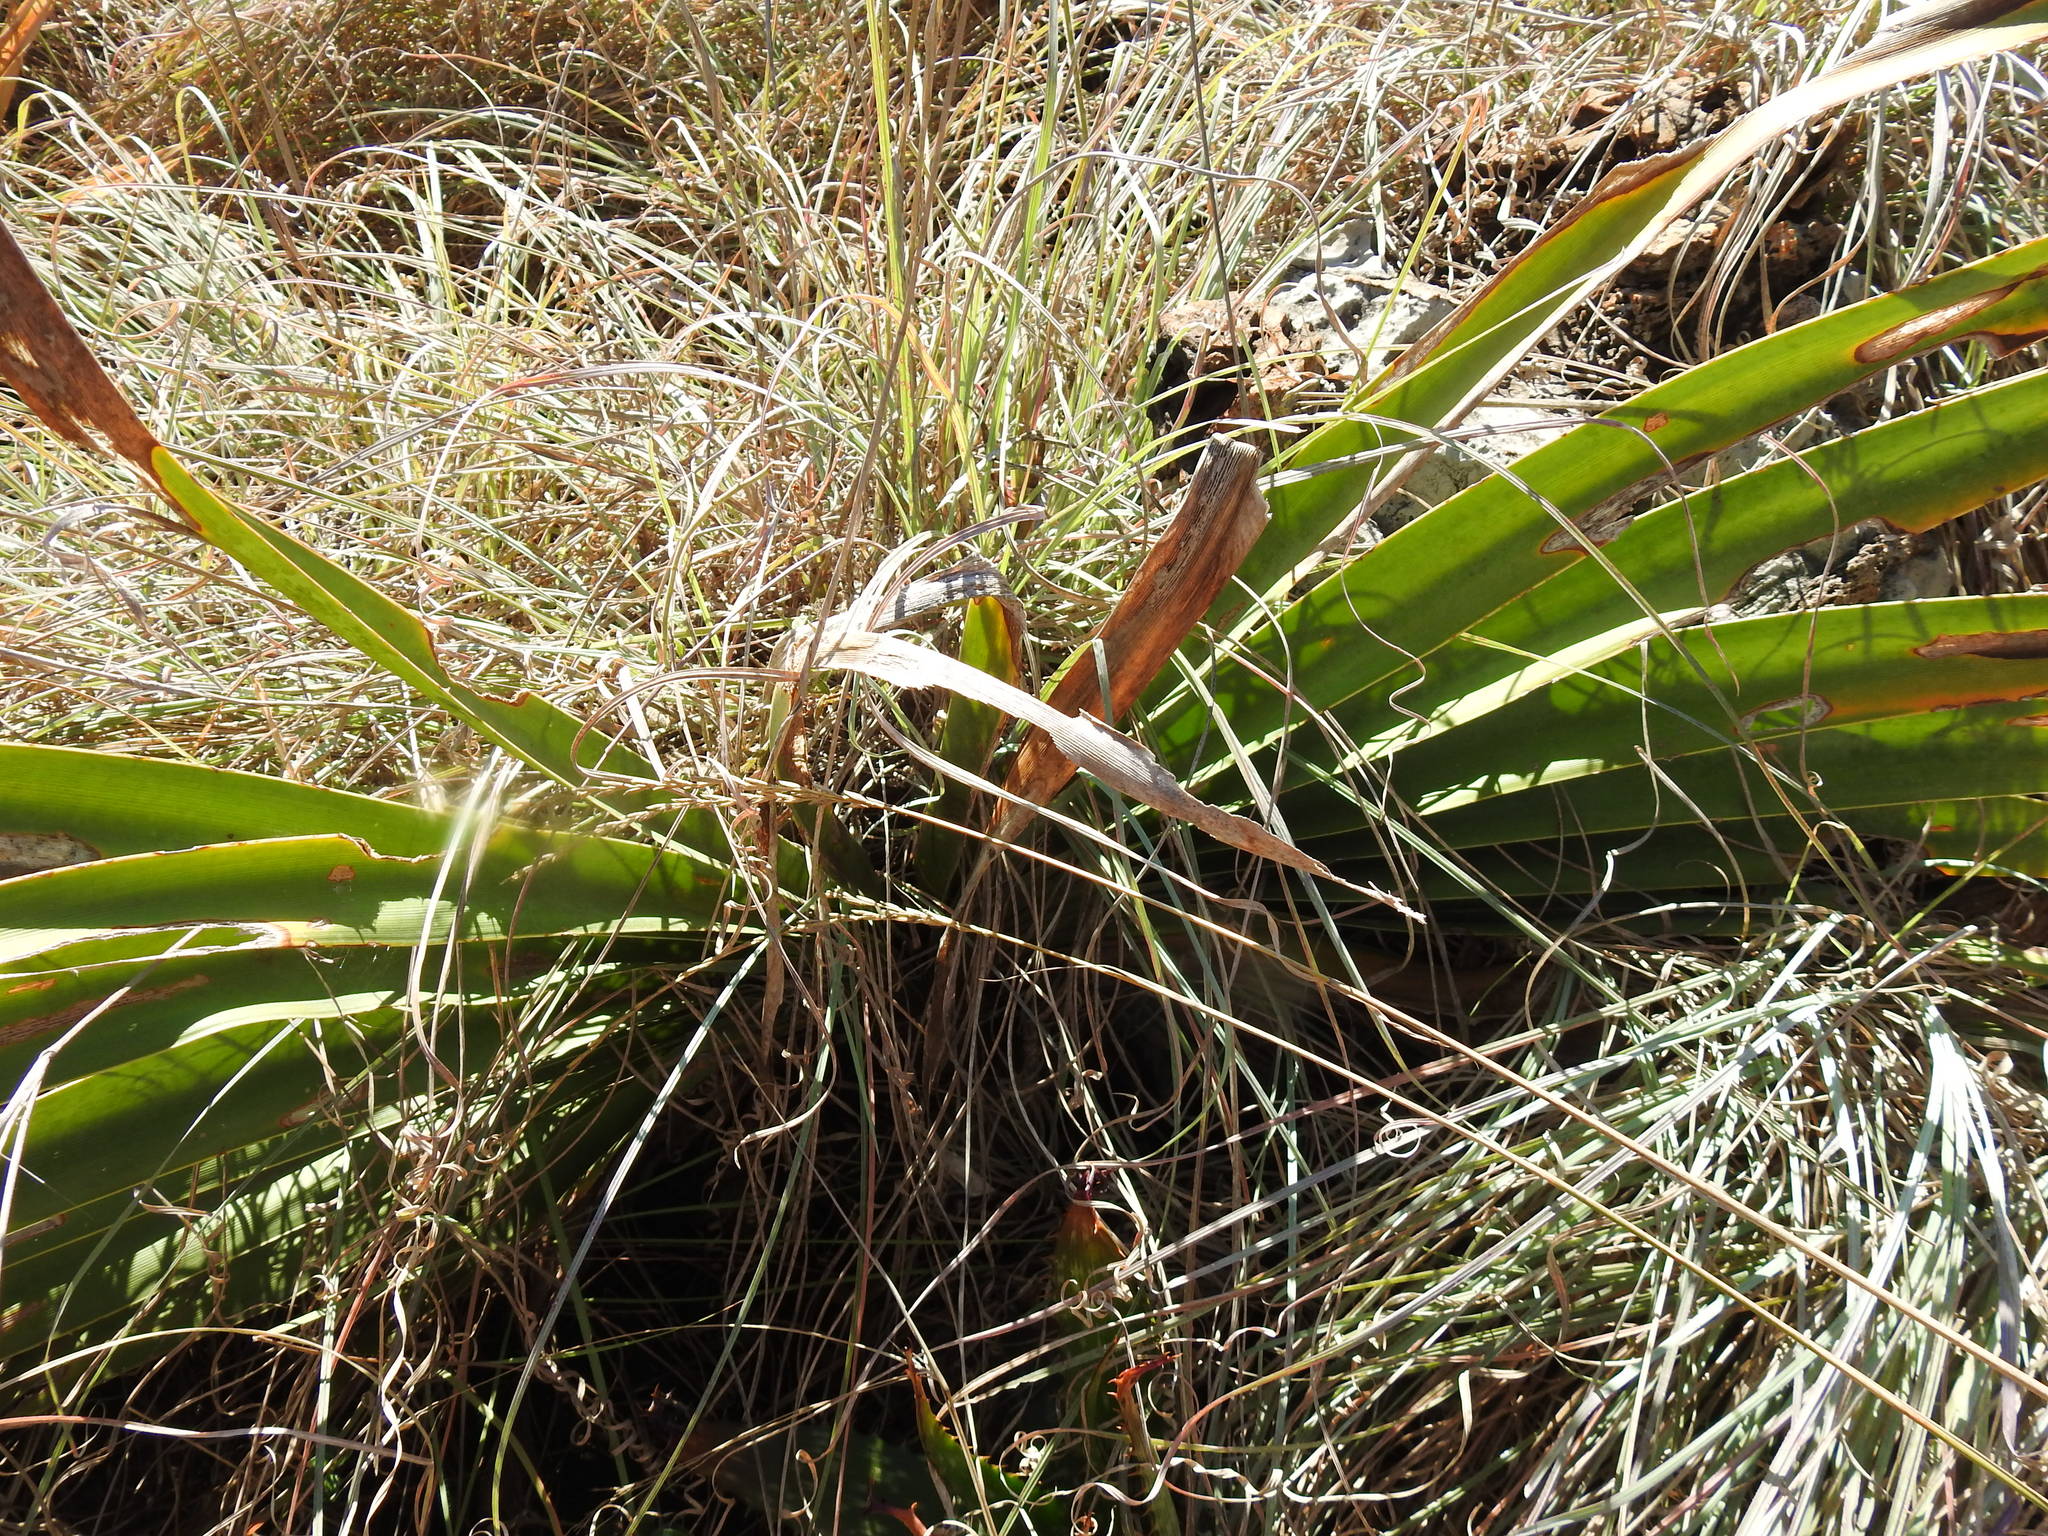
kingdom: Plantae
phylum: Tracheophyta
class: Liliopsida
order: Asparagales
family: Amaryllidaceae
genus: Boophone
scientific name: Boophone disticha
